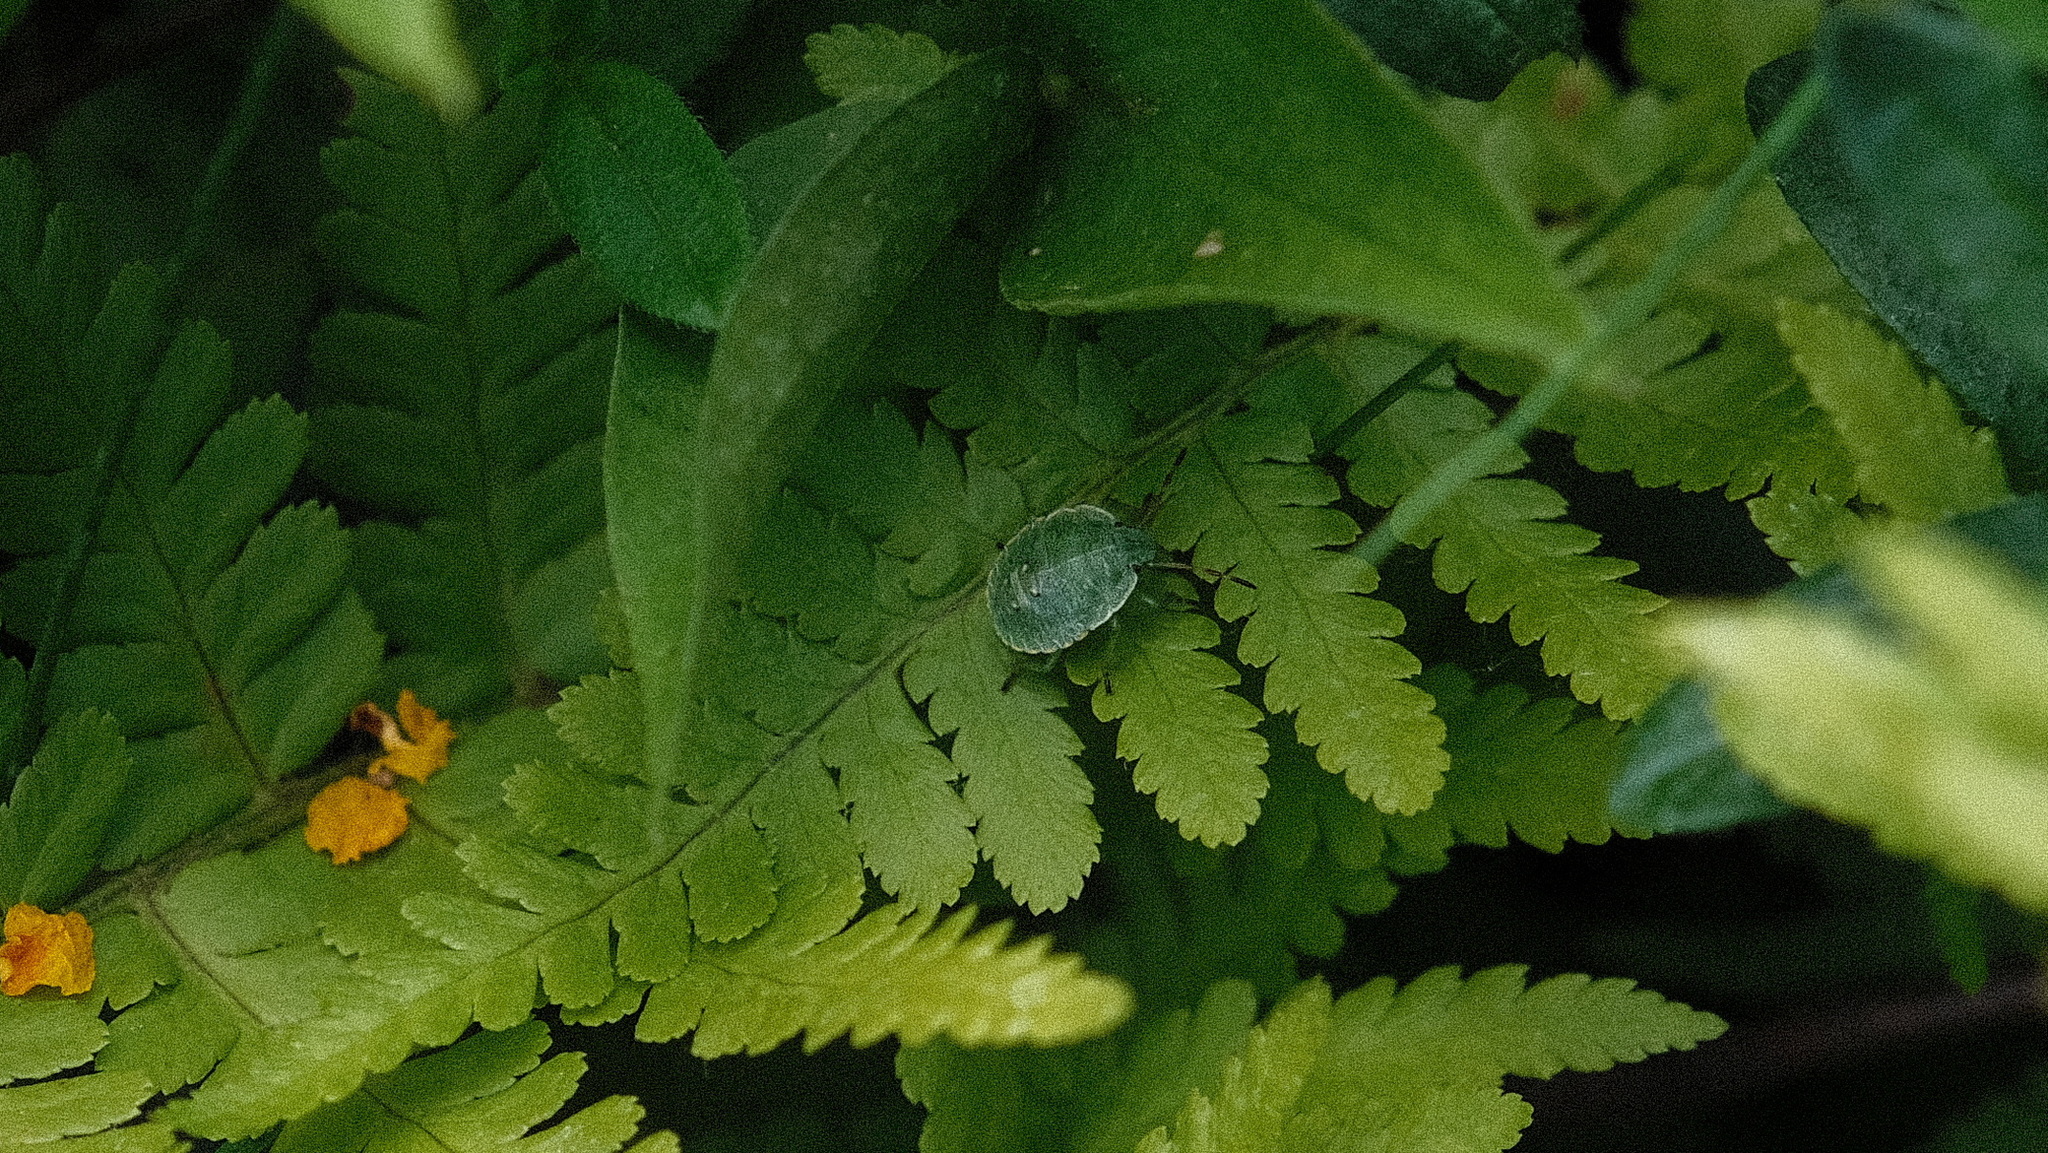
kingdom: Animalia
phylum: Arthropoda
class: Insecta
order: Hemiptera
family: Pentatomidae
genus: Palomena
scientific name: Palomena prasina
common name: Green shieldbug
